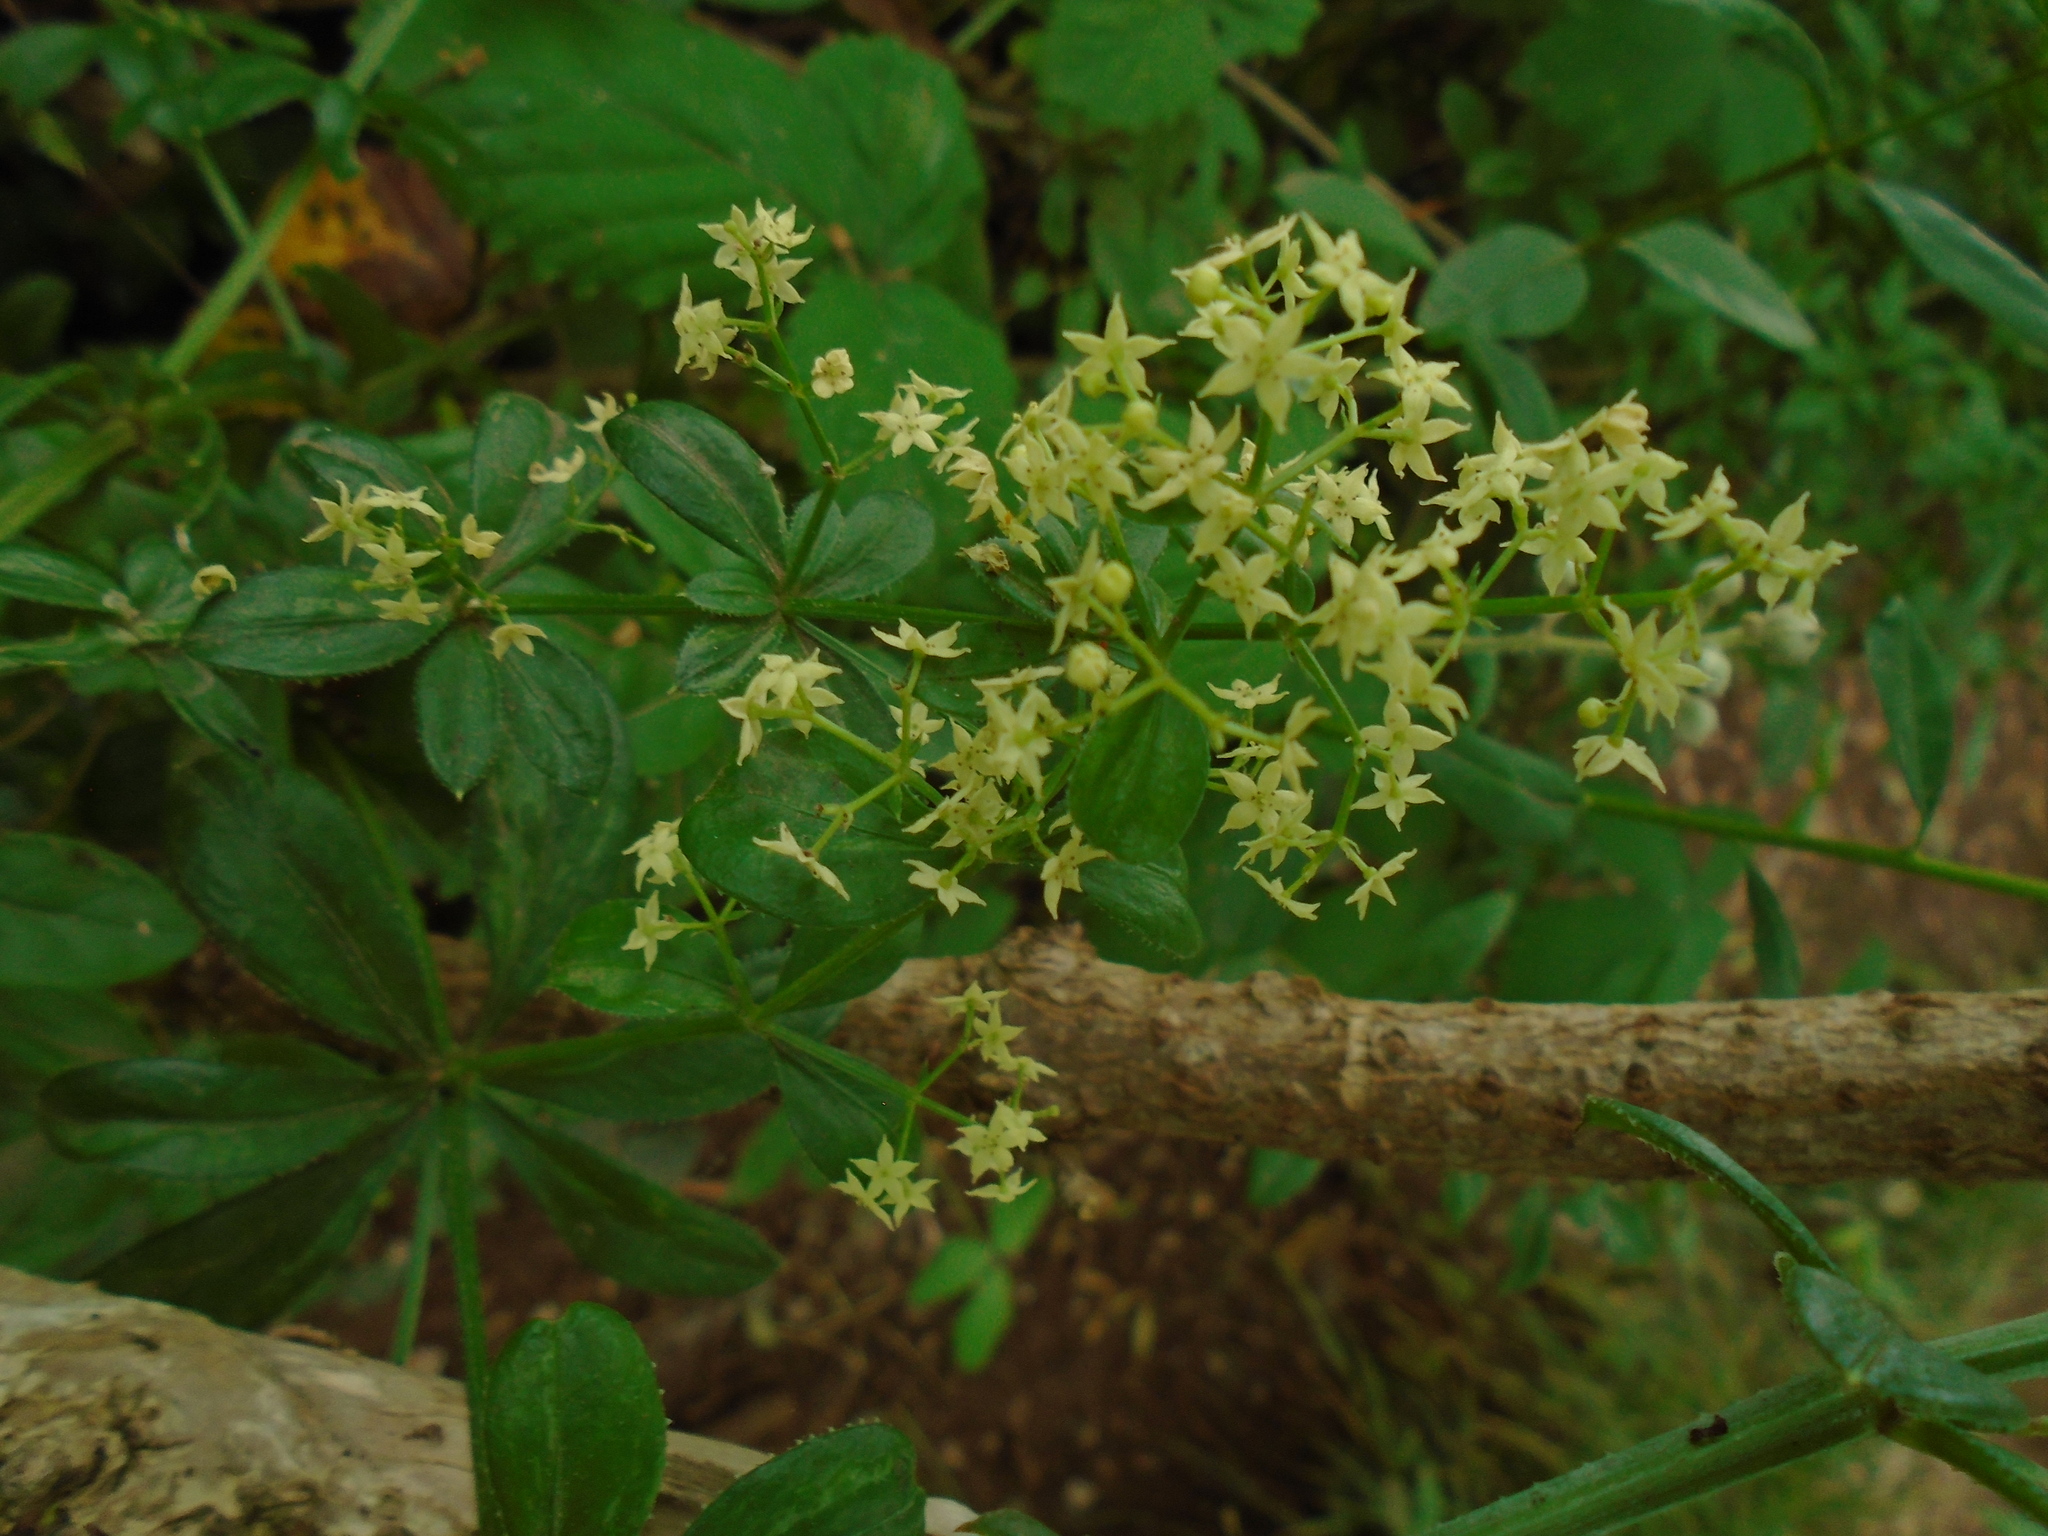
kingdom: Plantae
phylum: Tracheophyta
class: Magnoliopsida
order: Gentianales
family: Rubiaceae
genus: Rubia
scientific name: Rubia peregrina
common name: Wild madder
